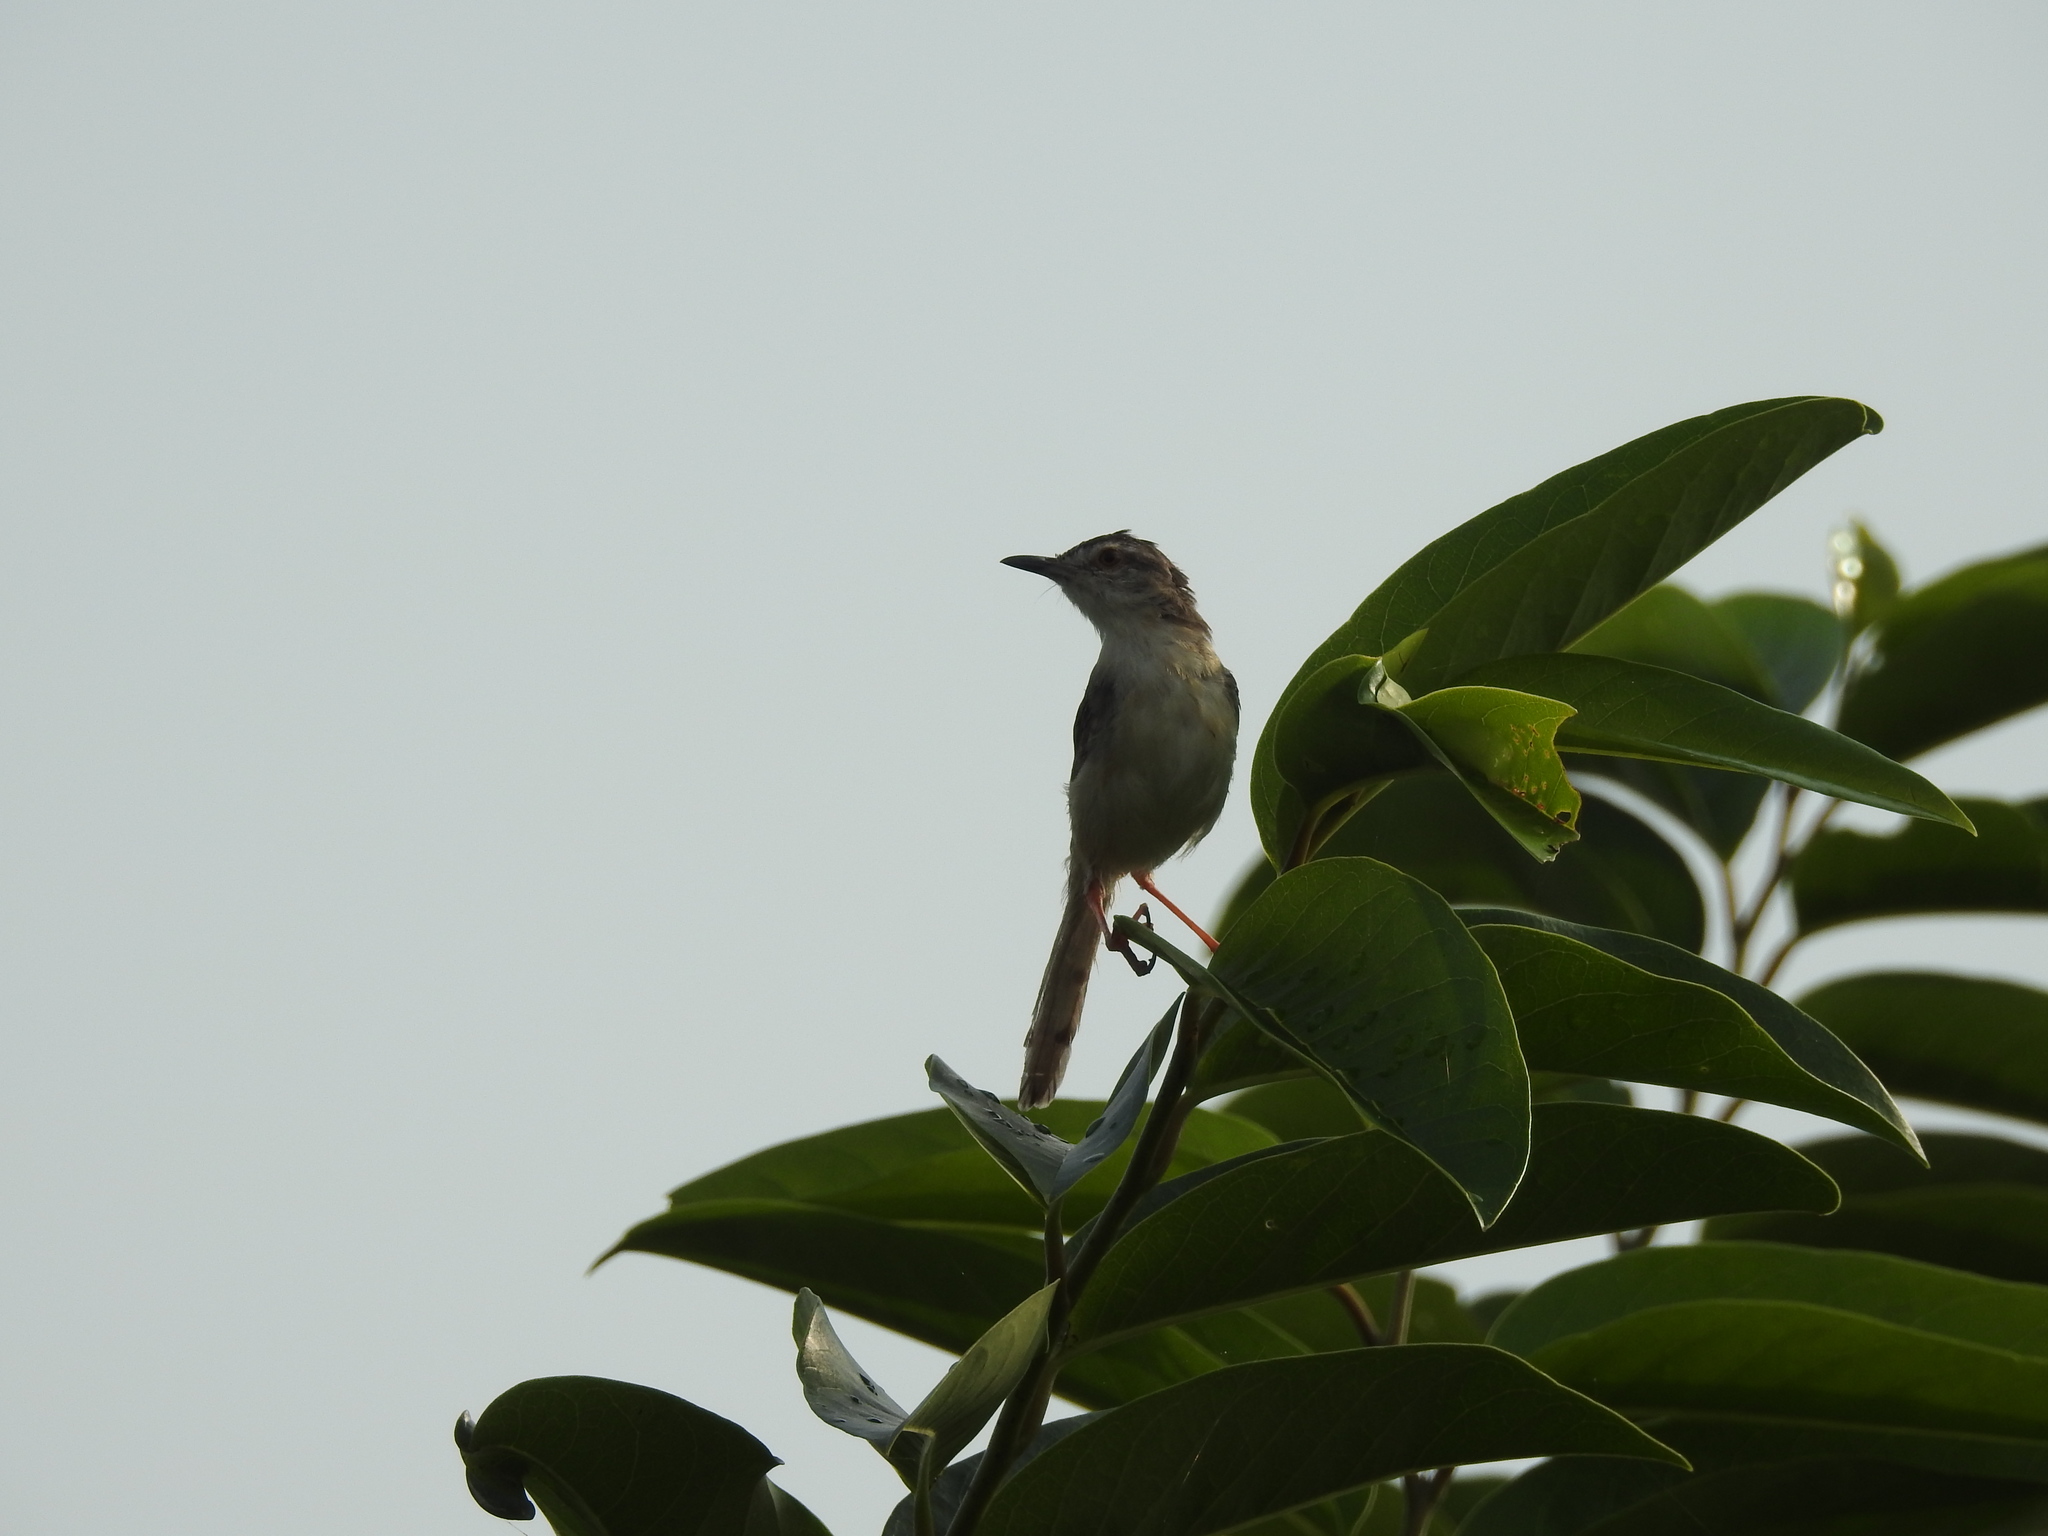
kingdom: Animalia
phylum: Chordata
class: Aves
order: Passeriformes
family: Cisticolidae
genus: Prinia
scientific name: Prinia inornata
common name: Plain prinia
